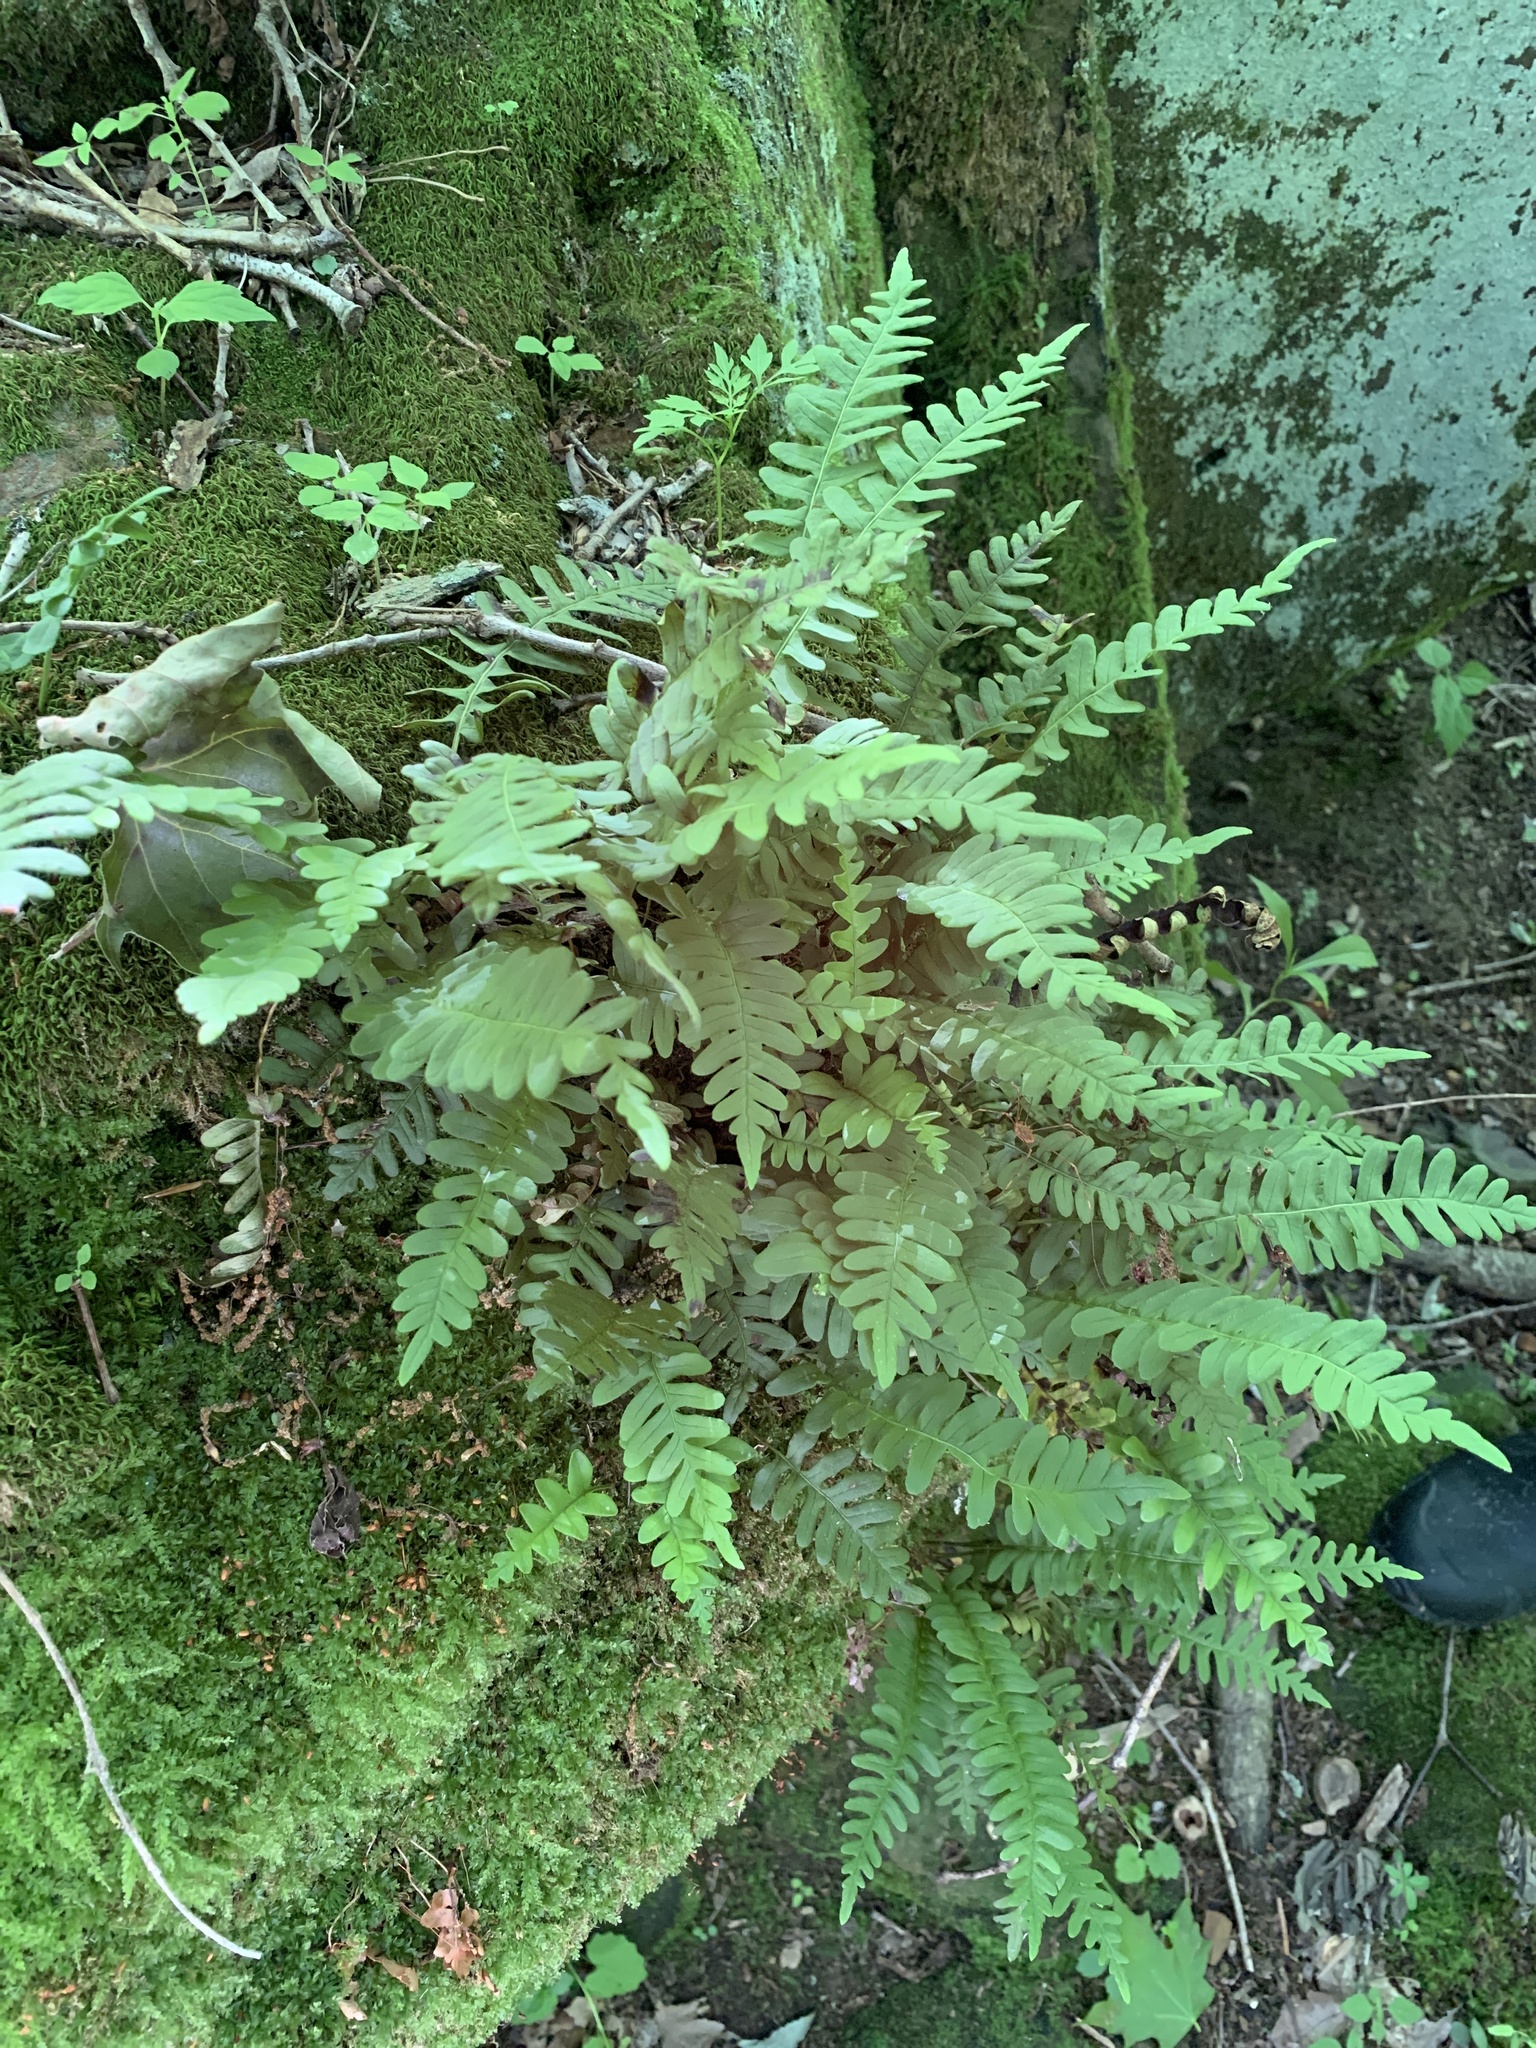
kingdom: Plantae
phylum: Tracheophyta
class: Polypodiopsida
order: Polypodiales
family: Polypodiaceae
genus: Polypodium
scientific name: Polypodium virginianum
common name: American wall fern
